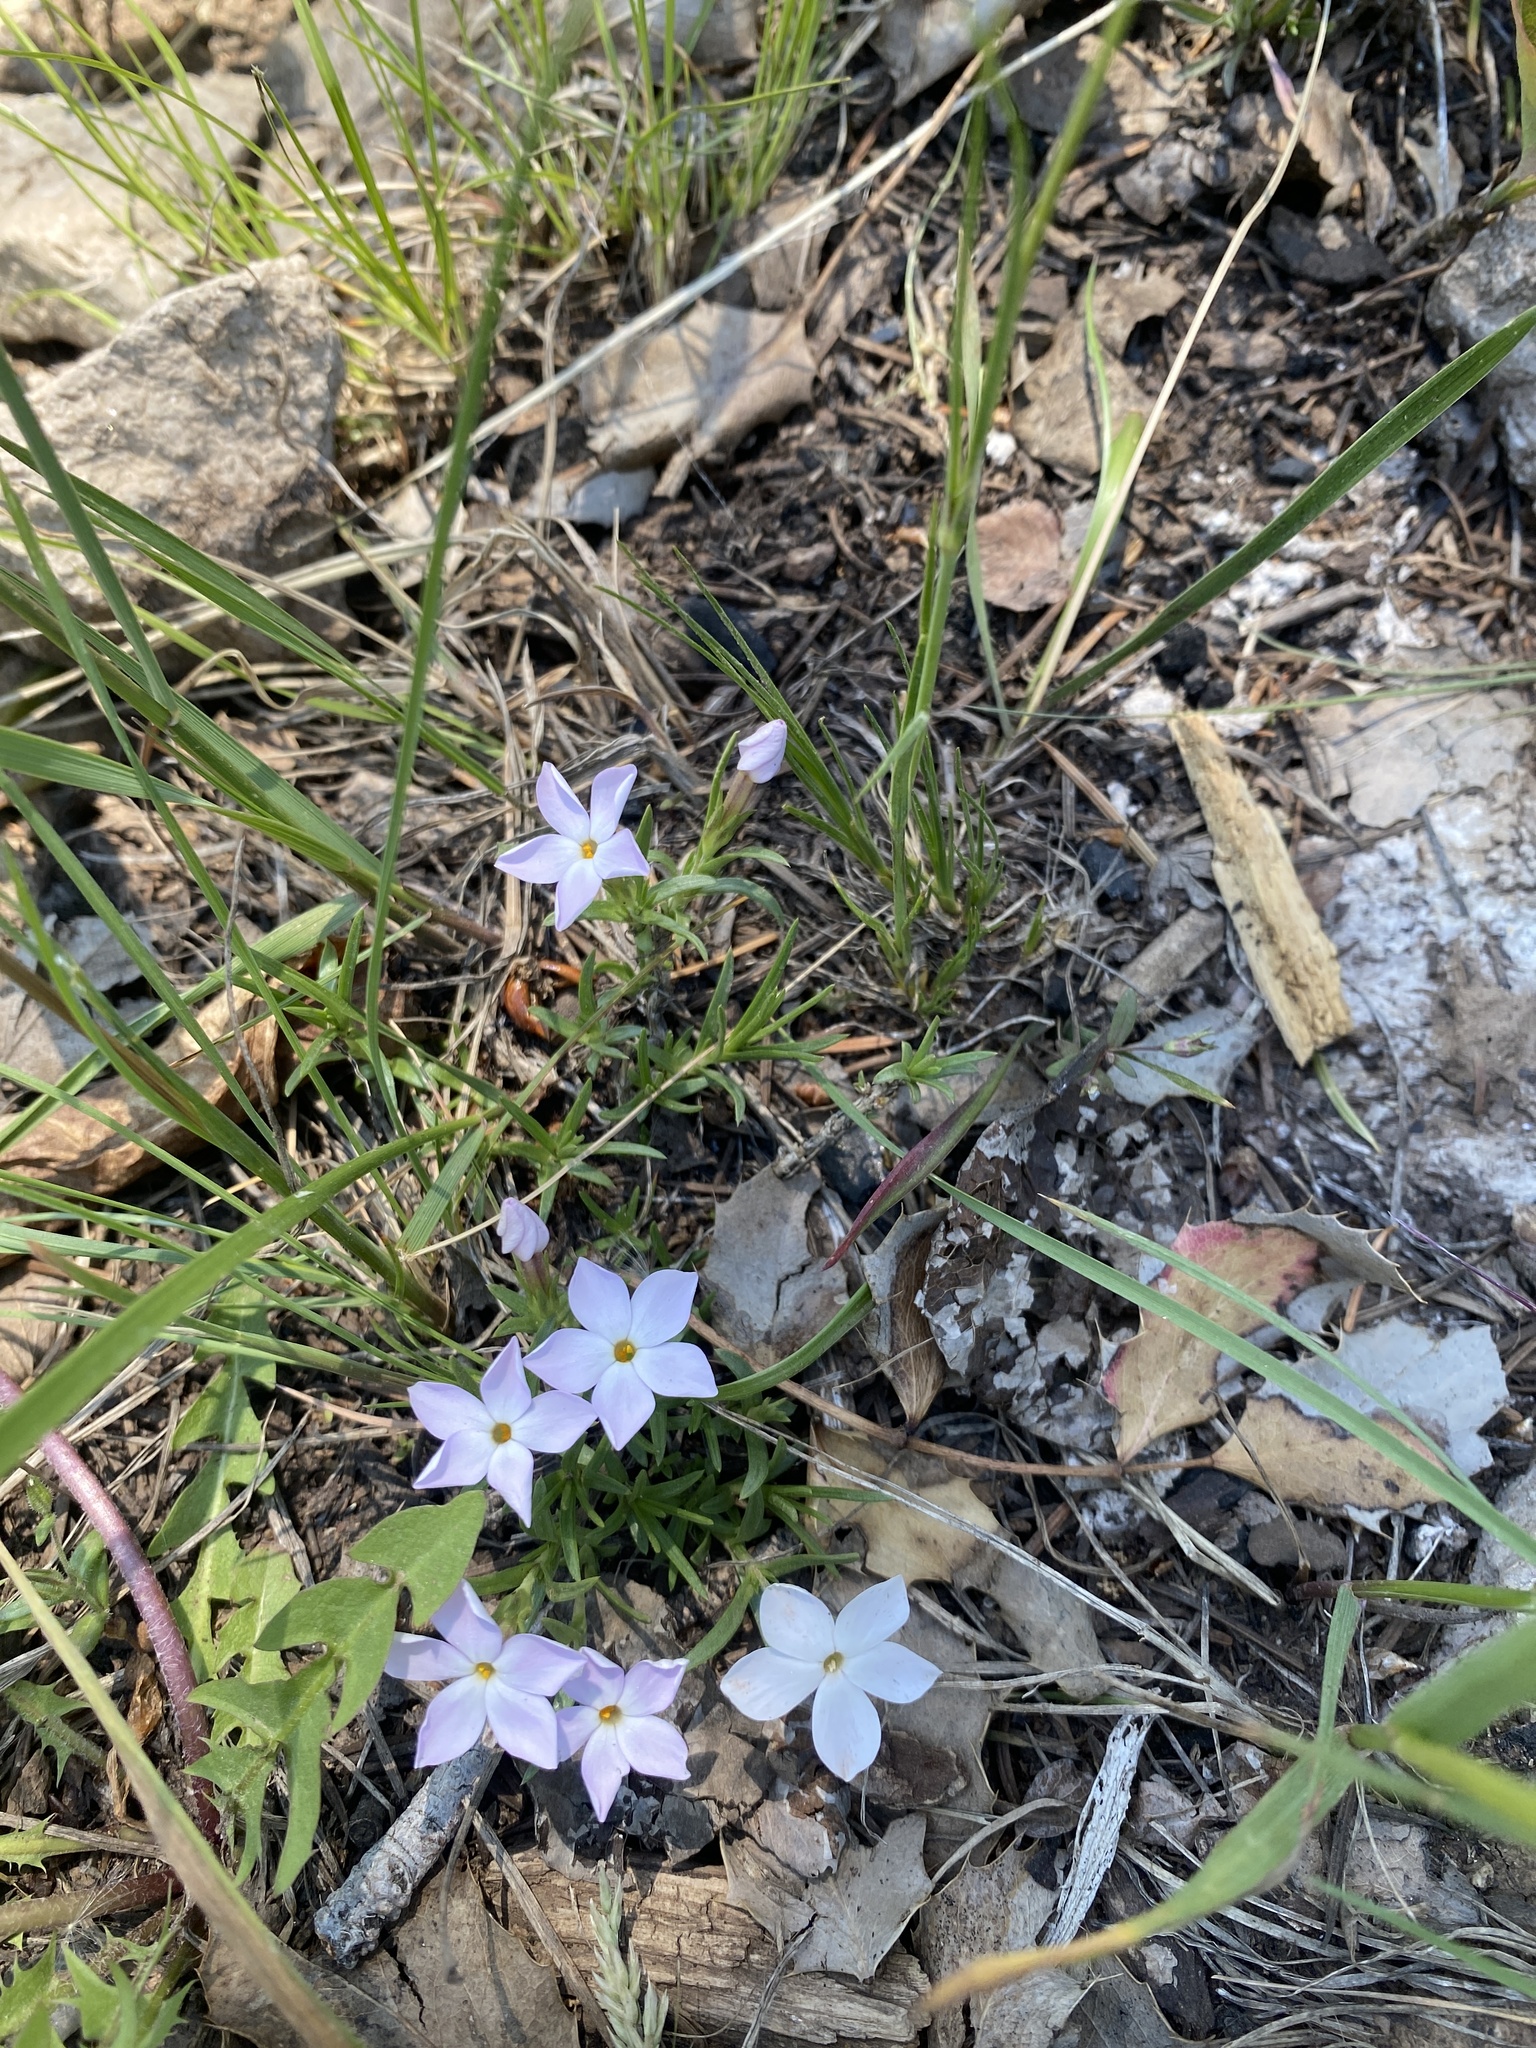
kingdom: Plantae
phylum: Tracheophyta
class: Magnoliopsida
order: Ericales
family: Polemoniaceae
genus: Phlox
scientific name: Phlox multiflora
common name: Rocky mountain phlox
